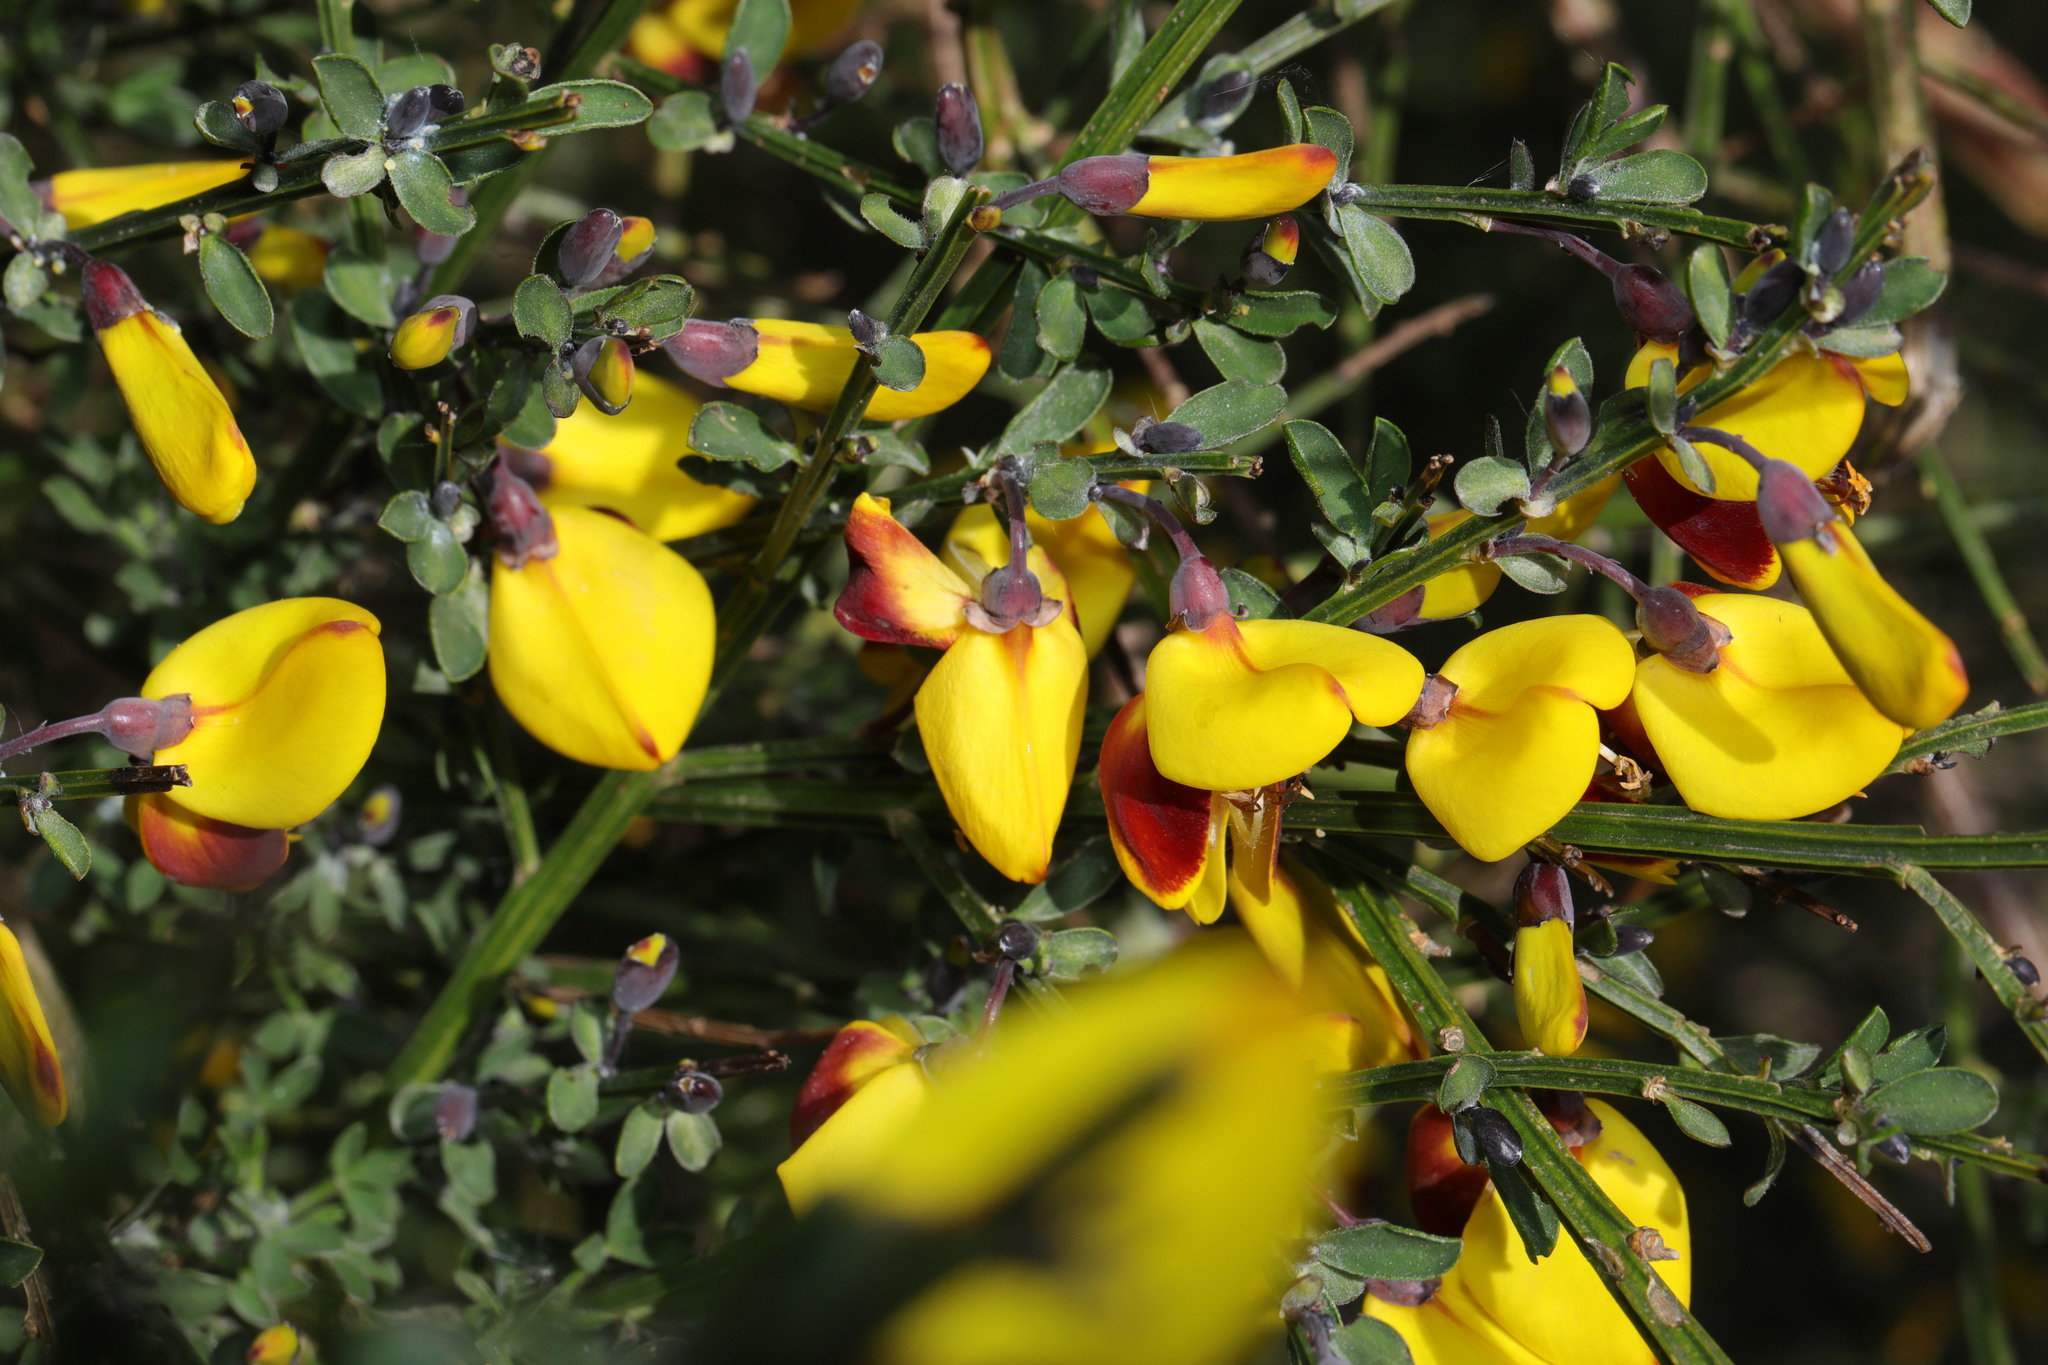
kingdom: Plantae
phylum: Tracheophyta
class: Magnoliopsida
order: Fabales
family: Fabaceae
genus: Cytisus
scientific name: Cytisus scoparius
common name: Scotch broom
